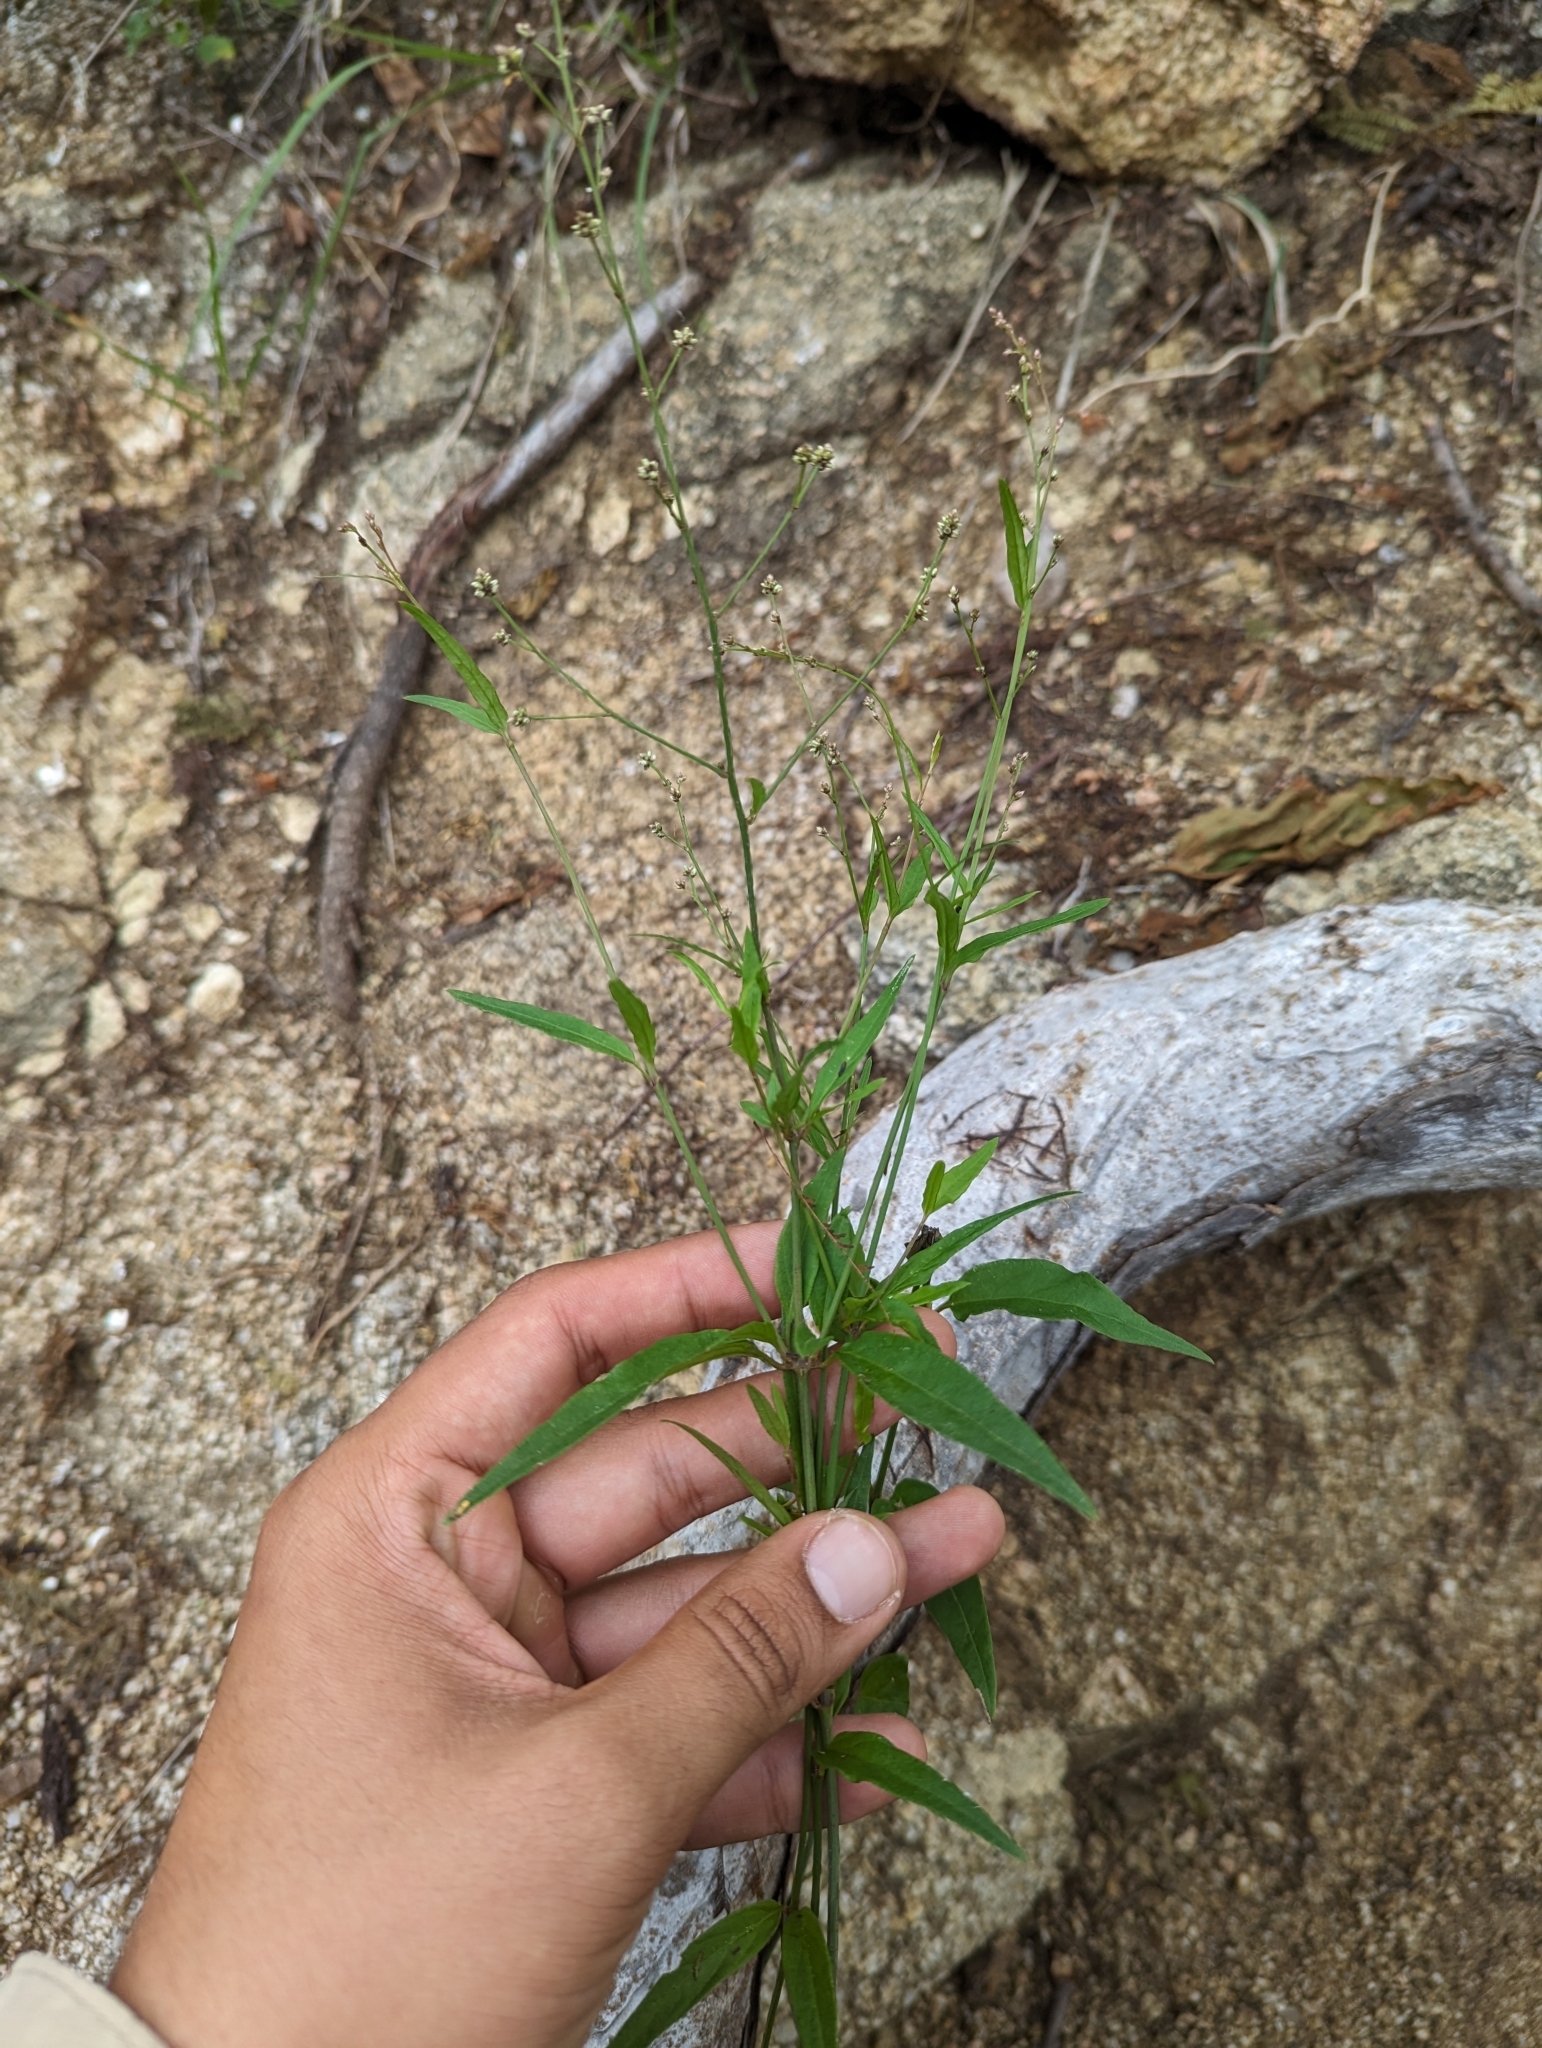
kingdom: Plantae
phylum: Tracheophyta
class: Magnoliopsida
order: Caryophyllales
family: Amaranthaceae
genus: Iresine
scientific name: Iresine angustifolia
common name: White snowplant
